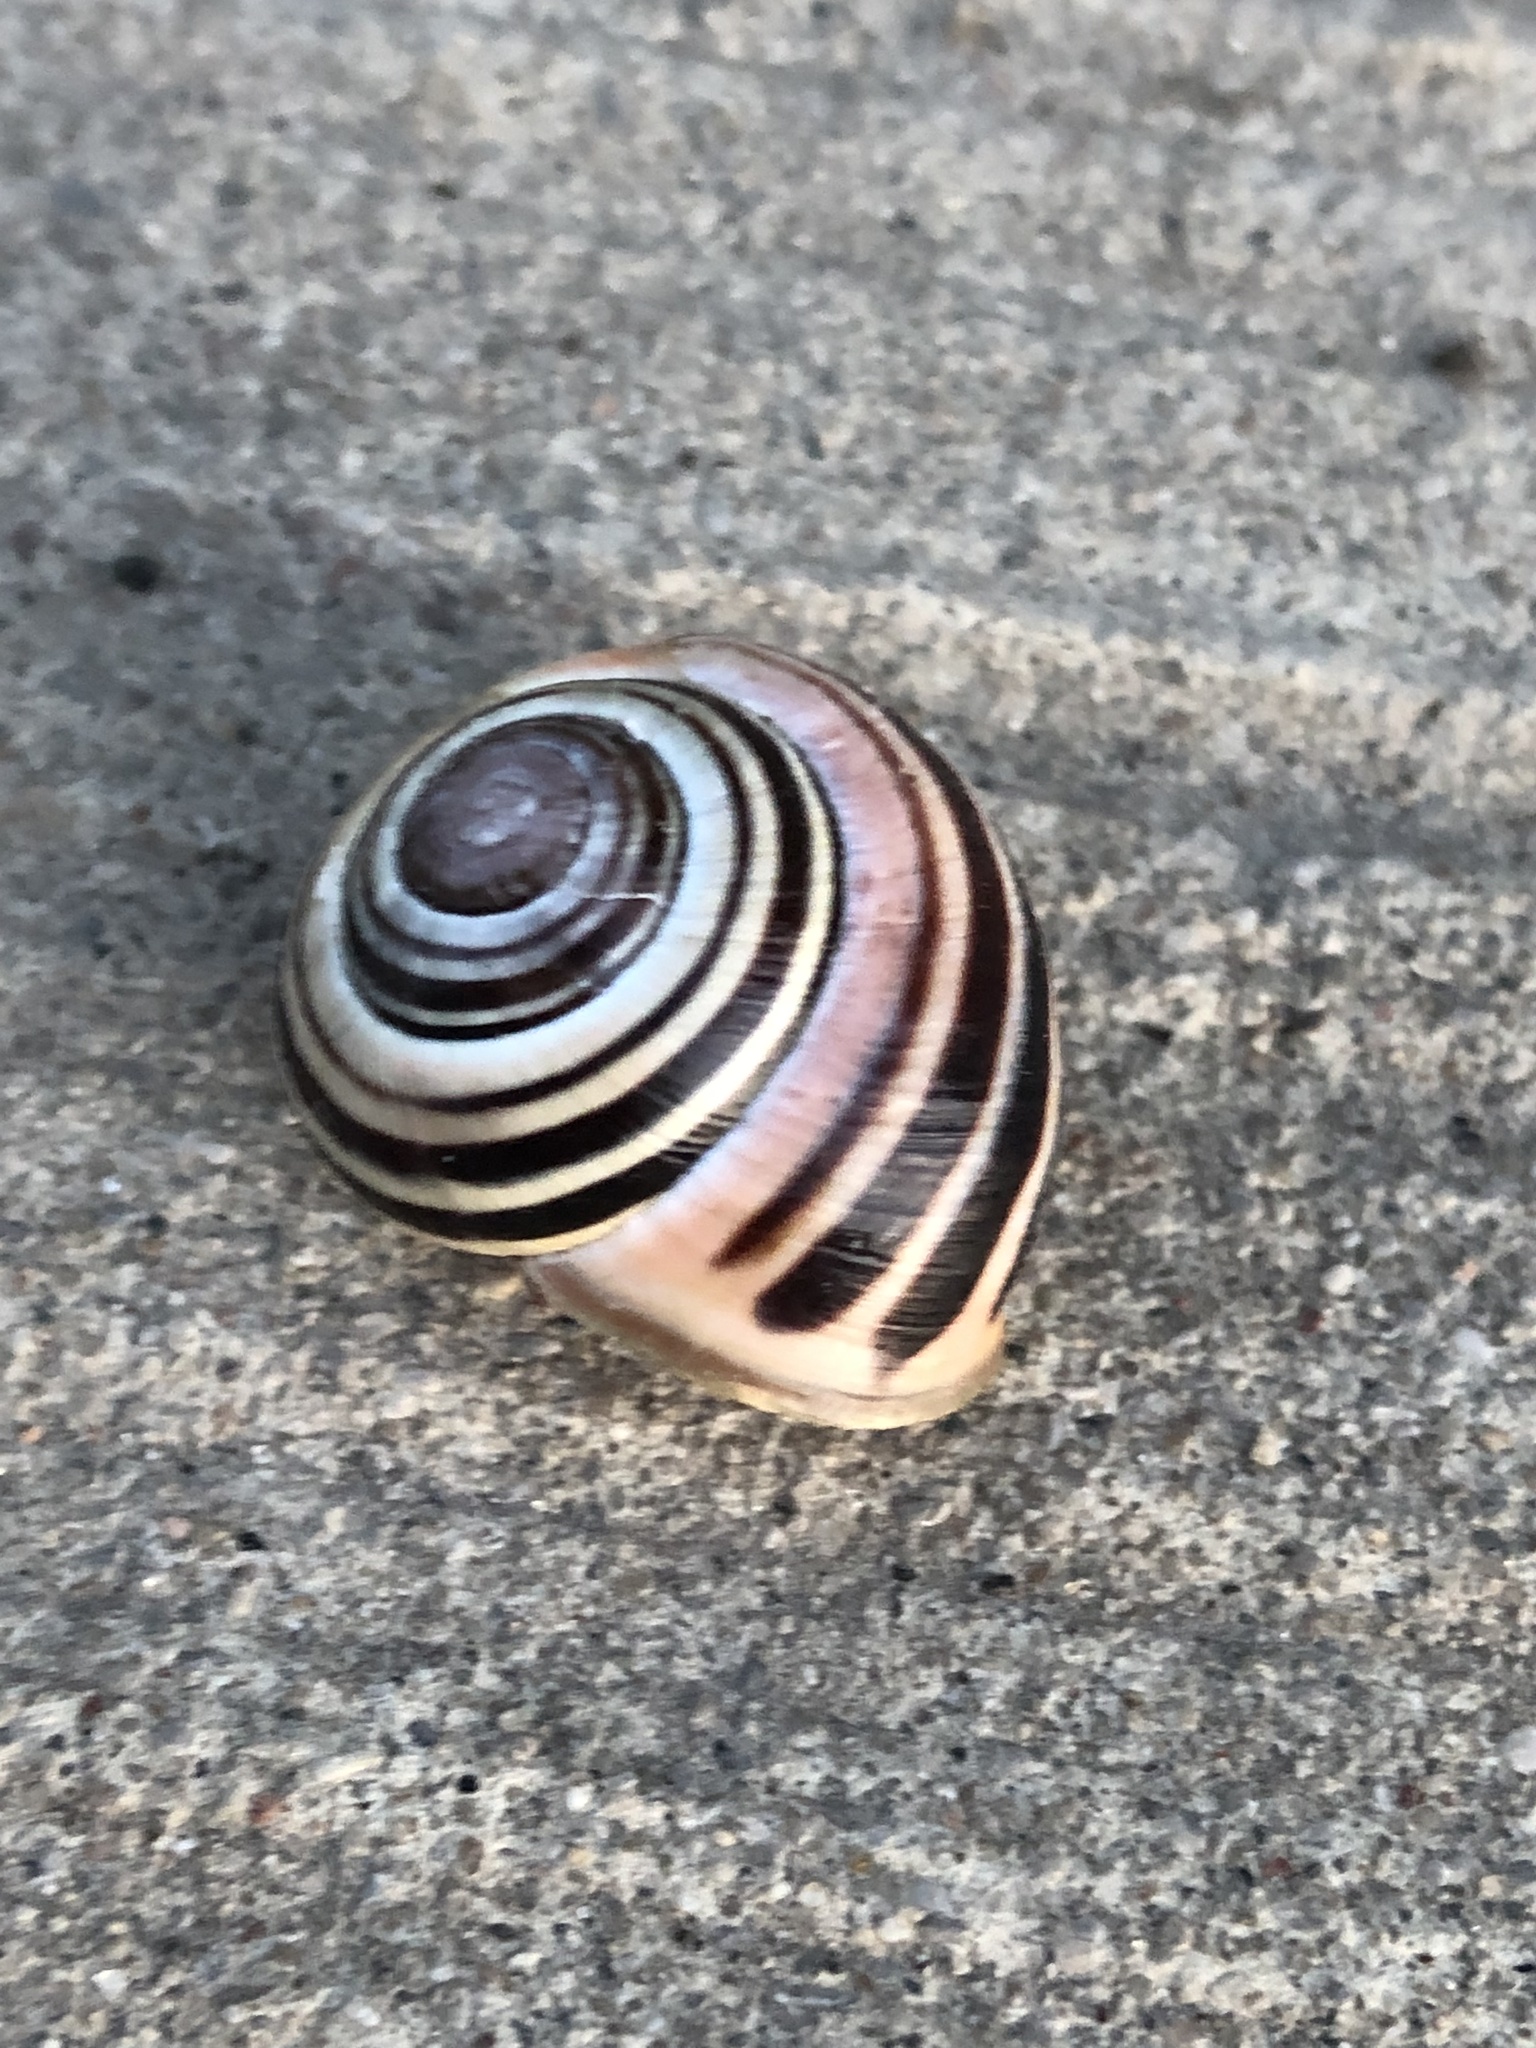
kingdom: Animalia
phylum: Mollusca
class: Gastropoda
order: Stylommatophora
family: Helicidae
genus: Cepaea
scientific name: Cepaea nemoralis
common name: Grovesnail
